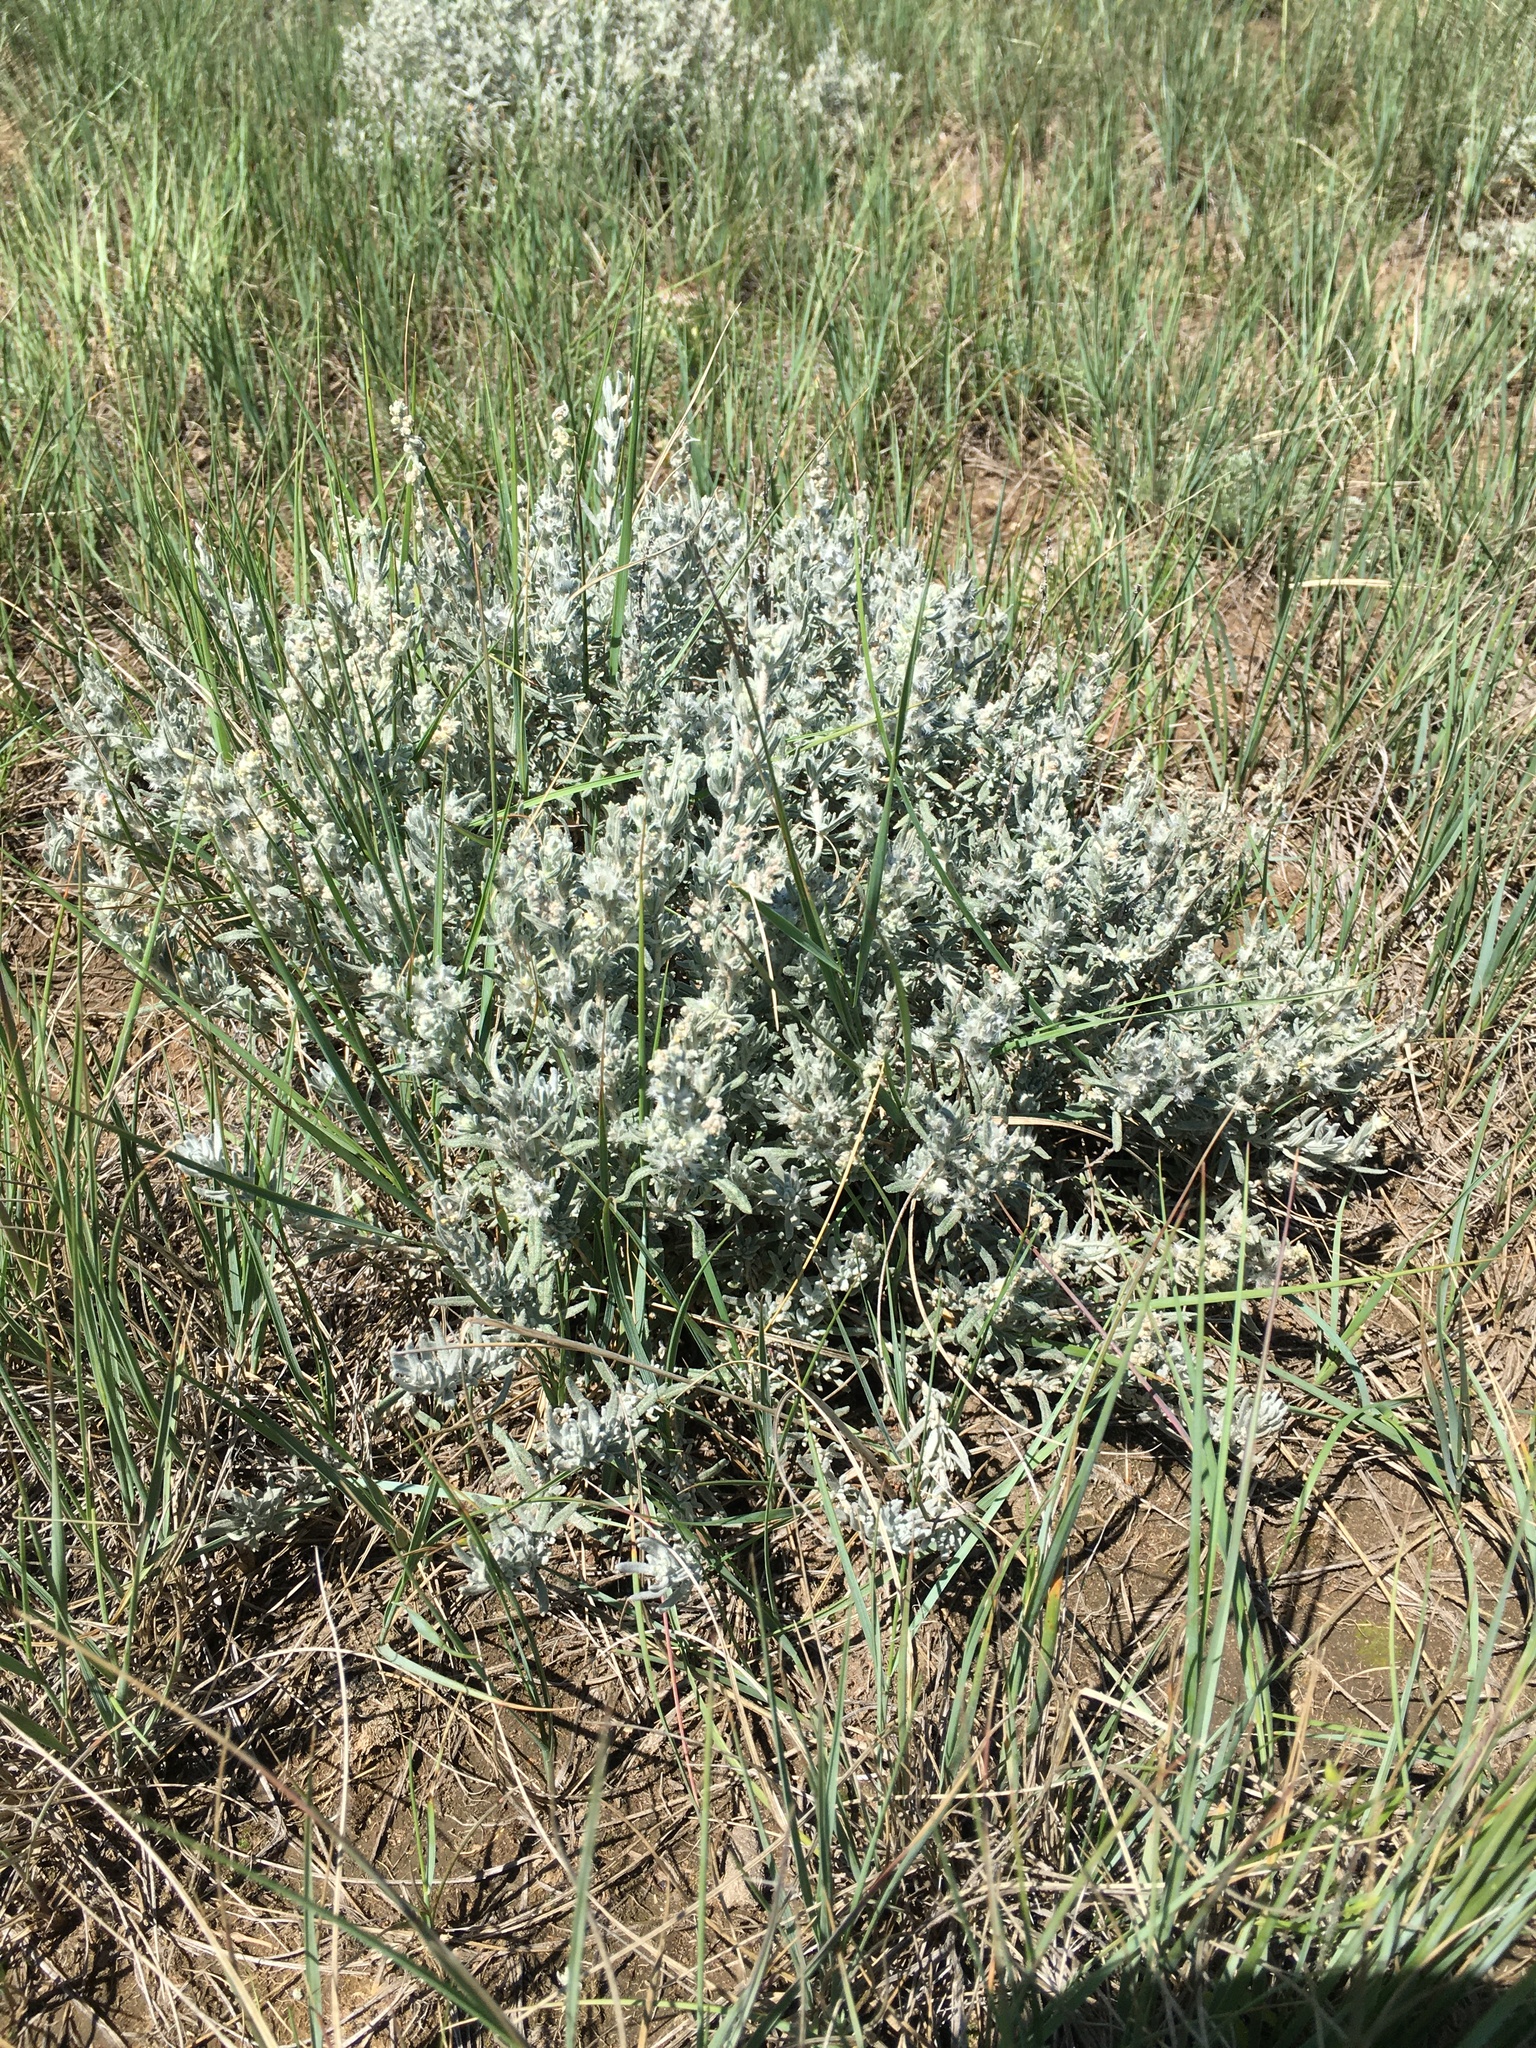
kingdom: Plantae
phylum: Tracheophyta
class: Magnoliopsida
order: Caryophyllales
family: Amaranthaceae
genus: Krascheninnikovia
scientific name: Krascheninnikovia lanata
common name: Winterfat
